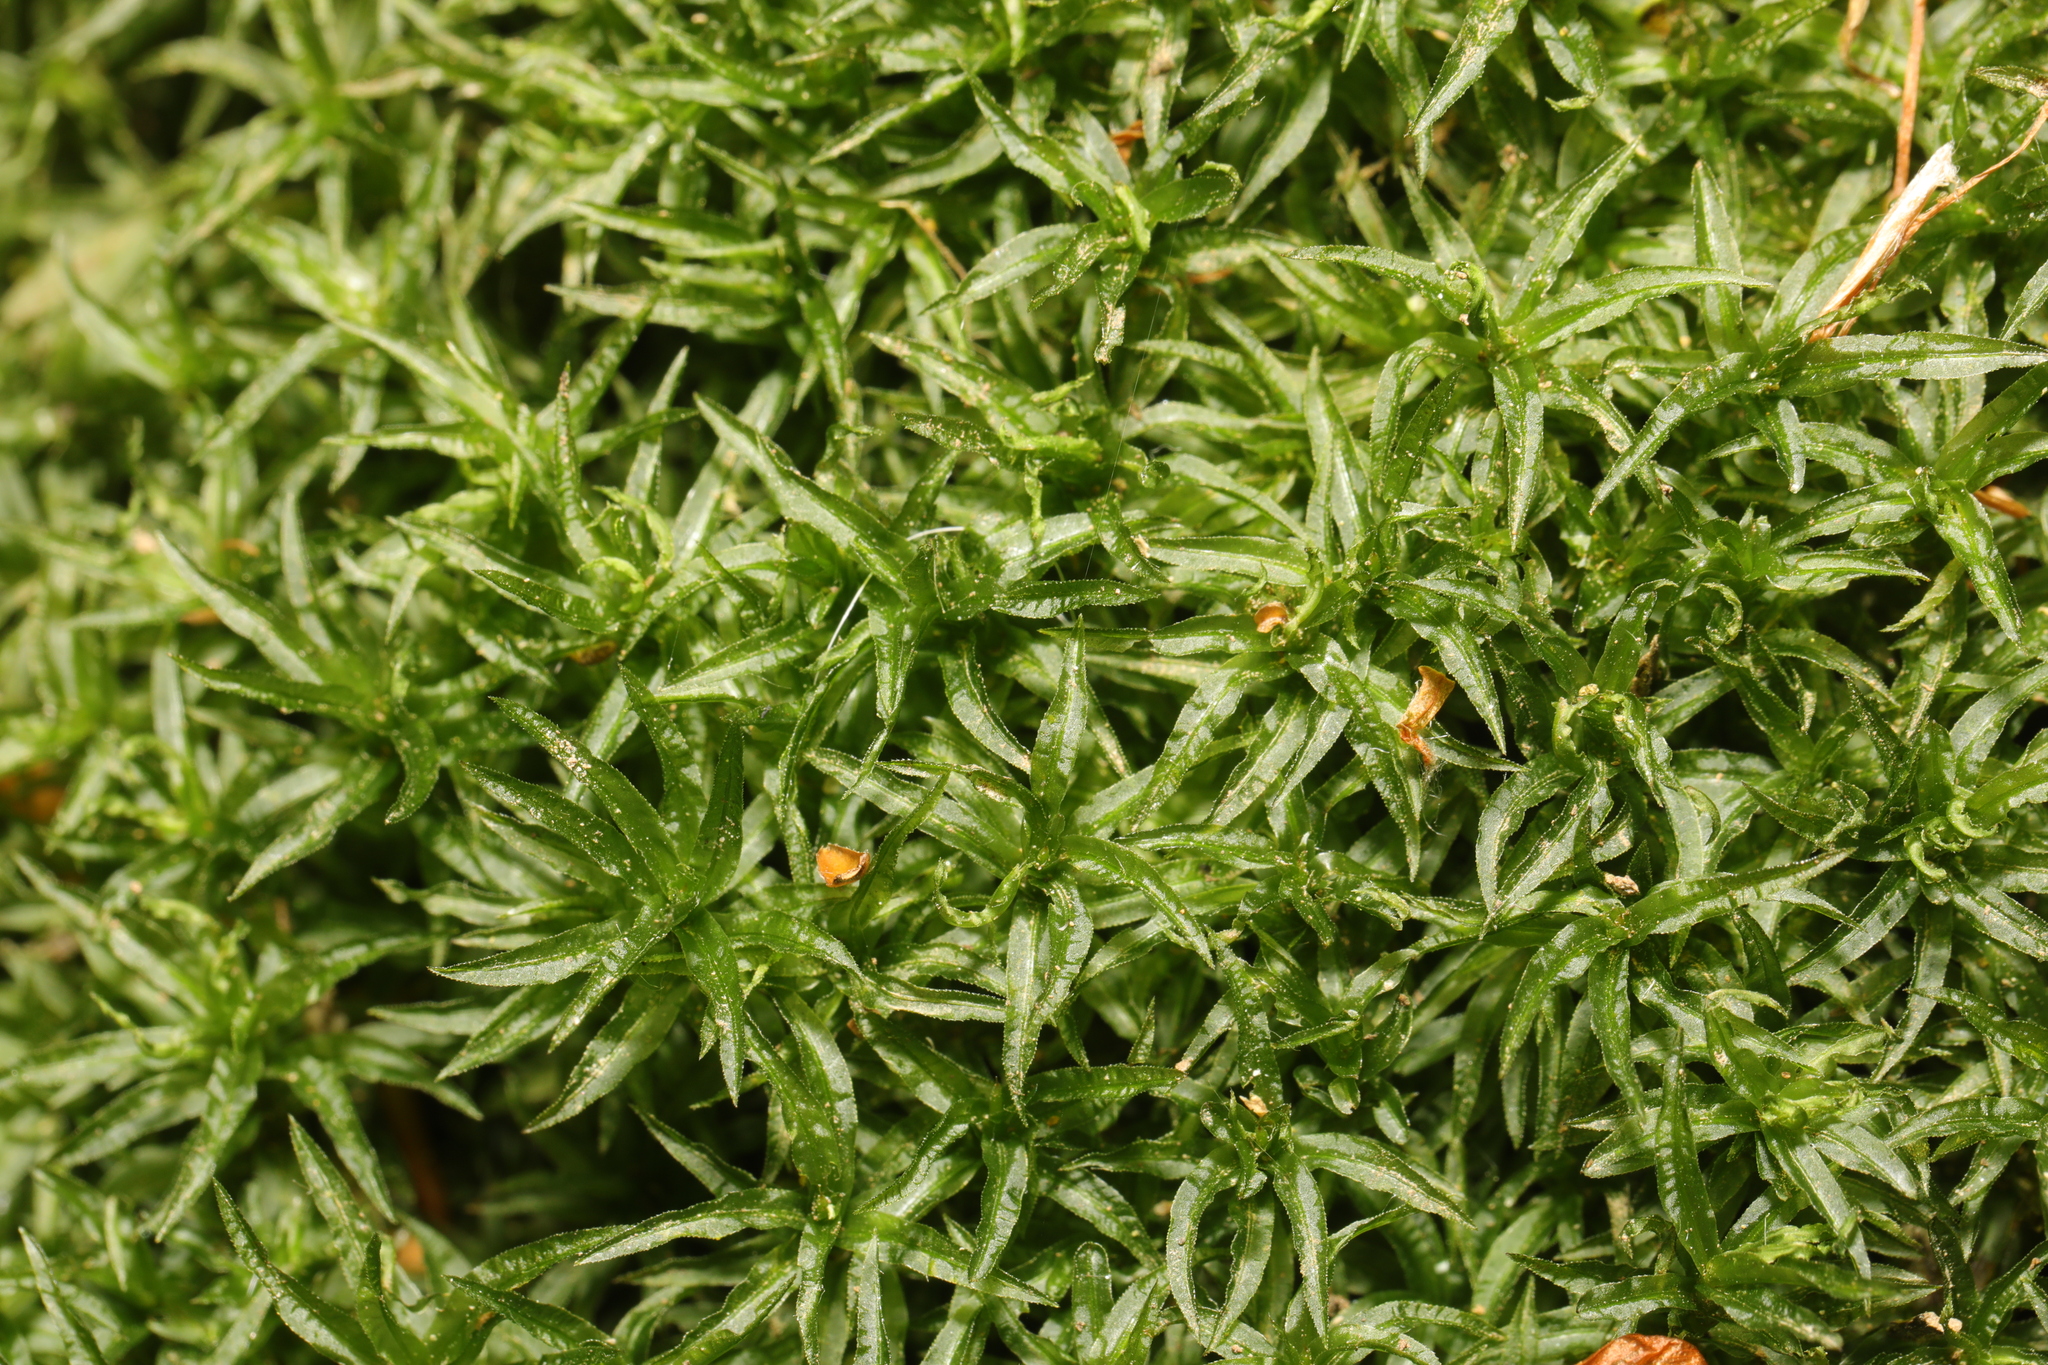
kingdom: Plantae
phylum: Bryophyta
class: Polytrichopsida
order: Polytrichales
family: Polytrichaceae
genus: Atrichum
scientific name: Atrichum undulatum
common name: Common smoothcap
